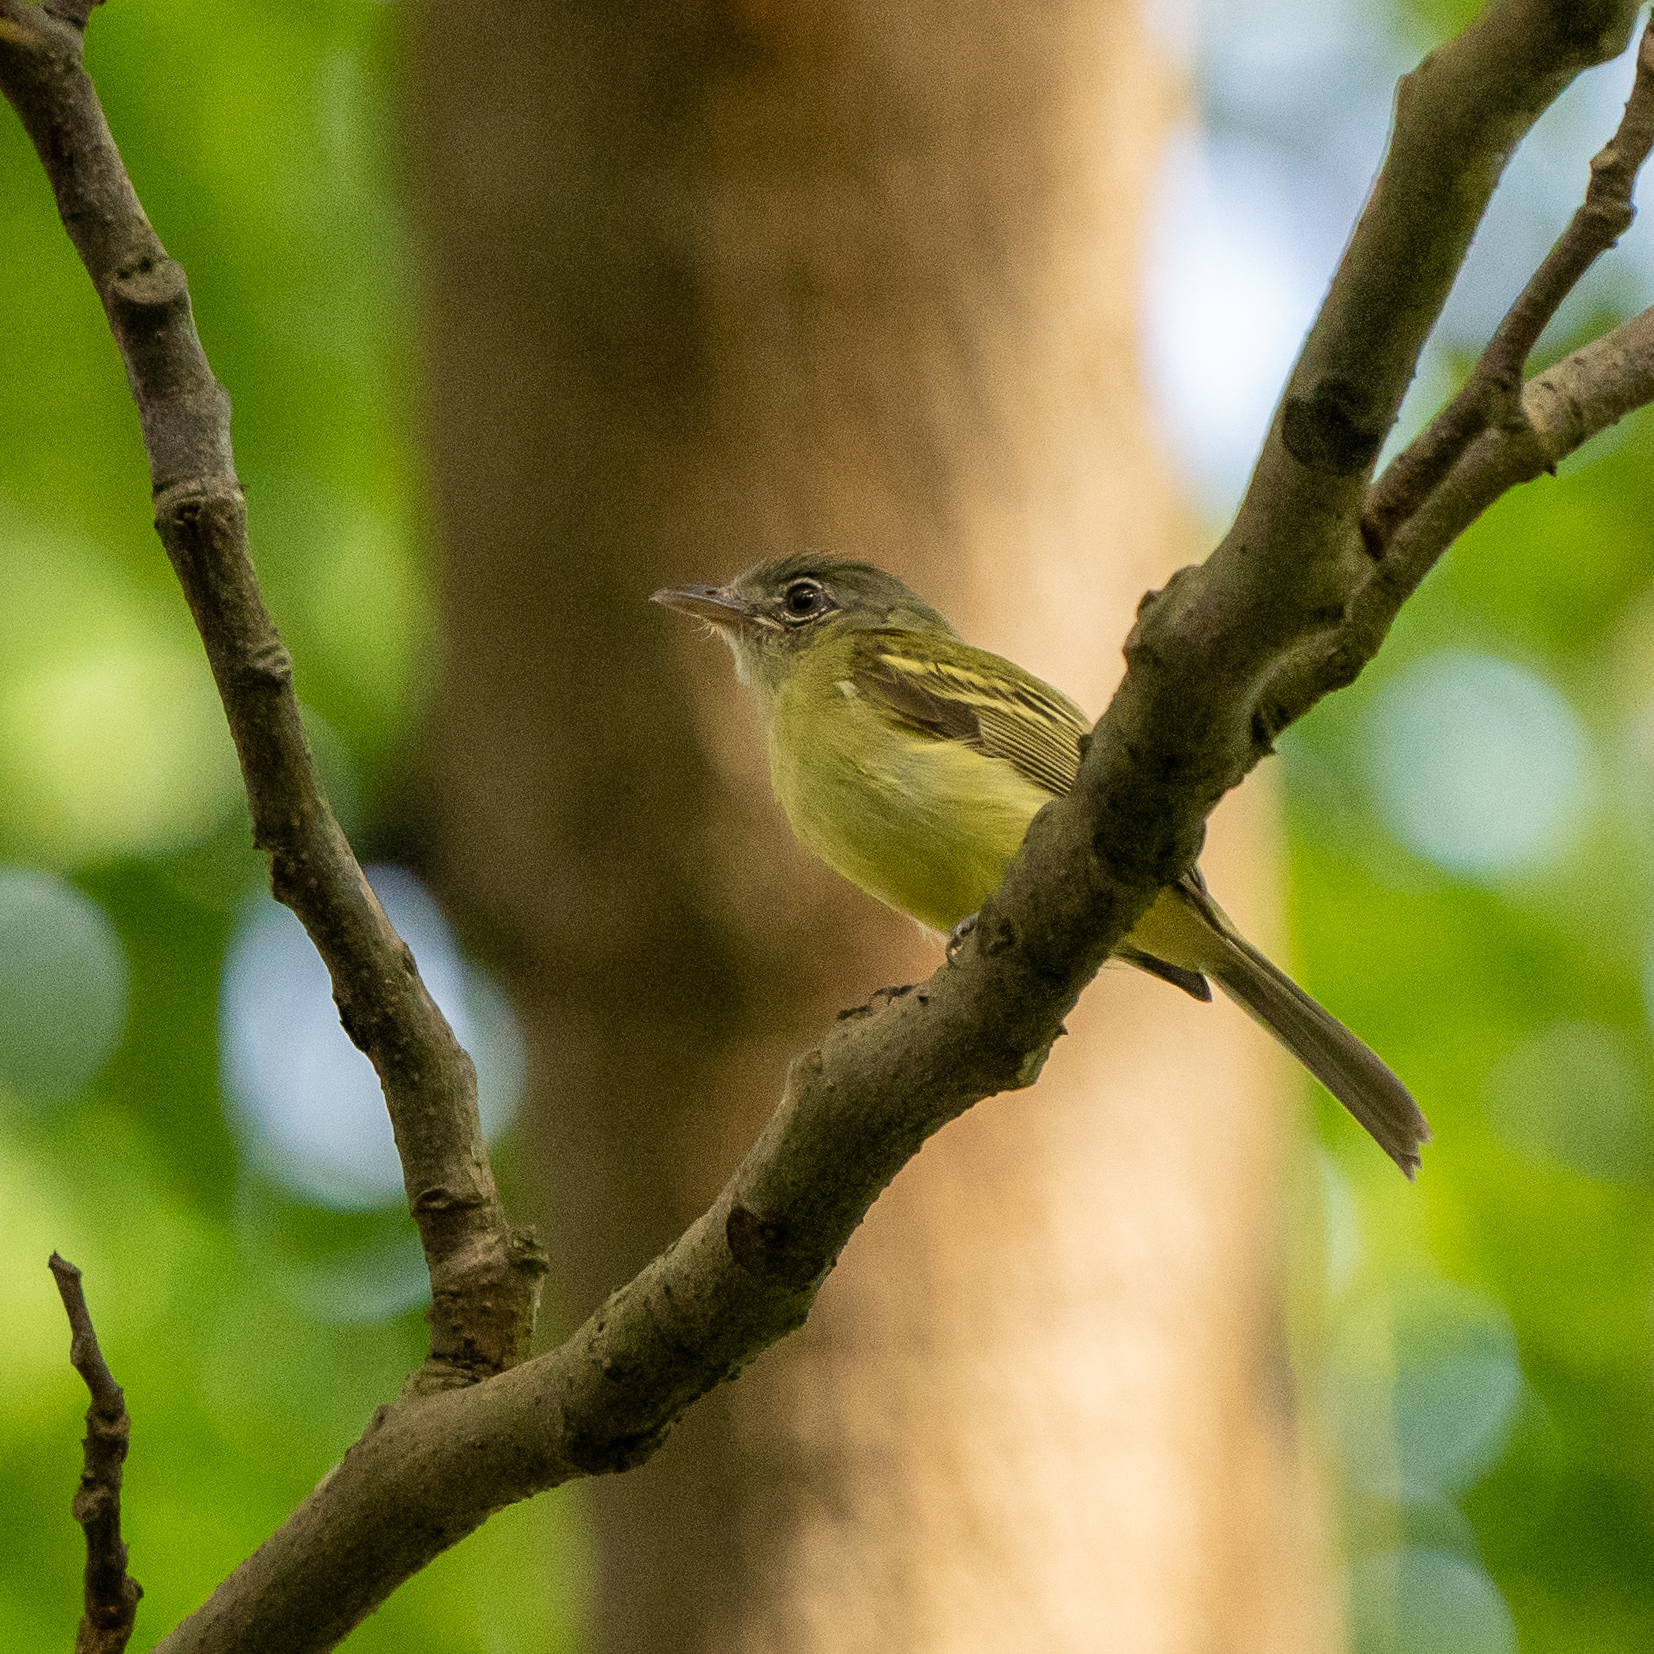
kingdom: Animalia
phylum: Chordata
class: Aves
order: Passeriformes
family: Tyrannidae
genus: Tolmomyias
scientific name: Tolmomyias sulphurescens
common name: Yellow-olive flycatcher
